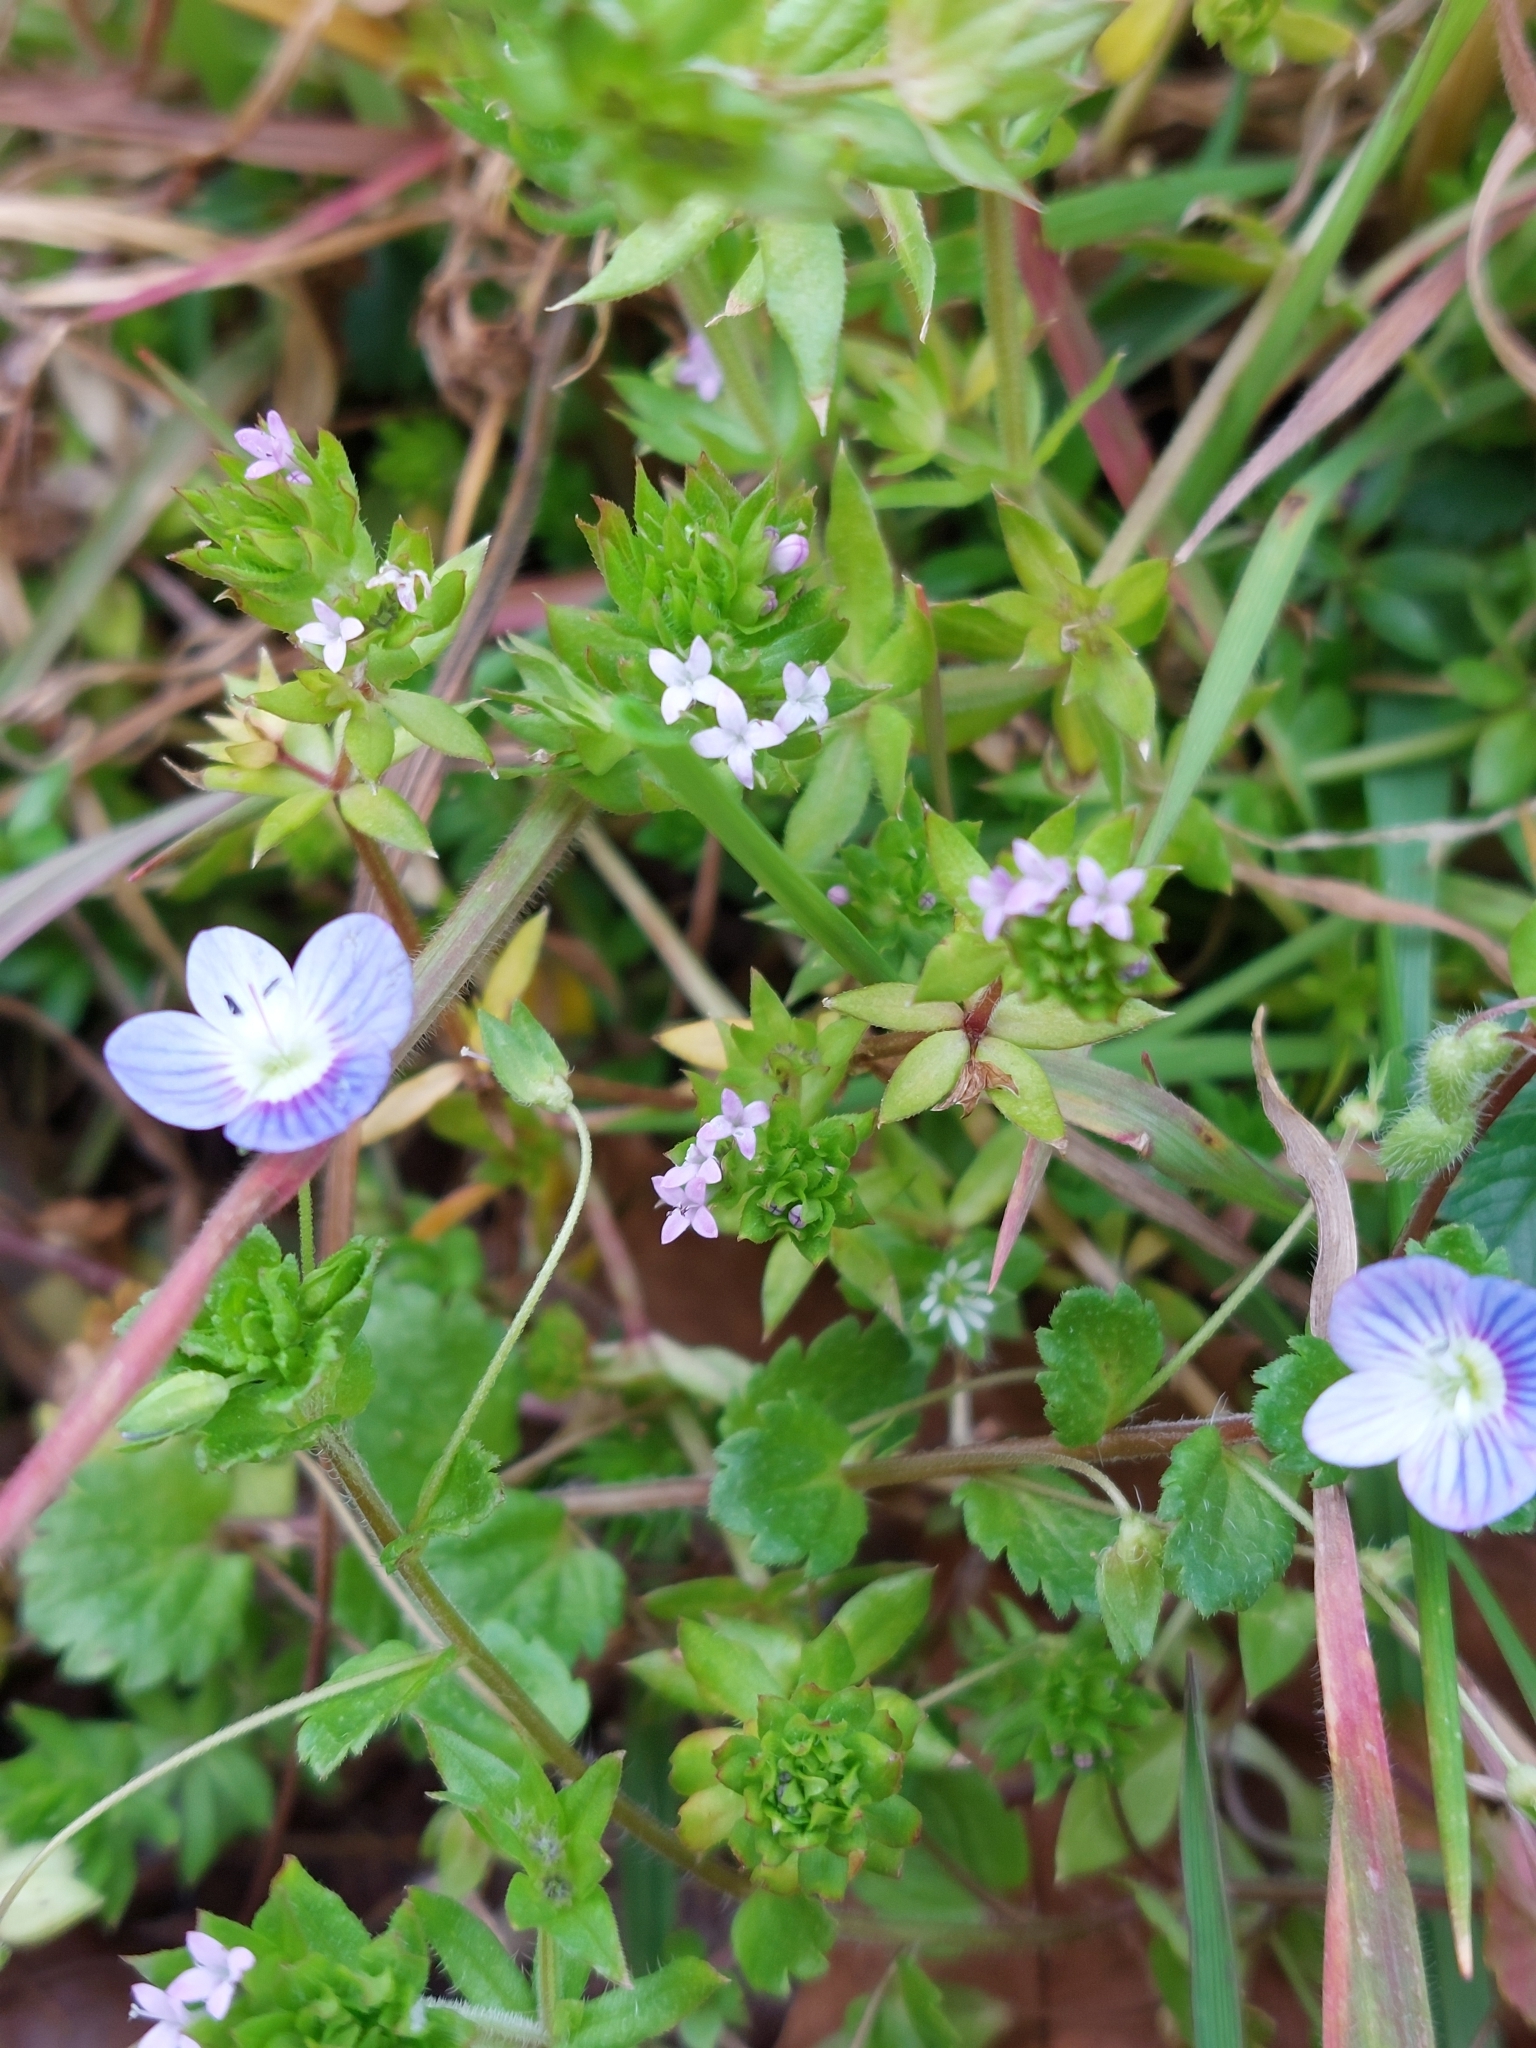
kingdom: Plantae
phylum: Tracheophyta
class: Magnoliopsida
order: Gentianales
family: Rubiaceae
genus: Sherardia
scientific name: Sherardia arvensis
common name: Field madder
